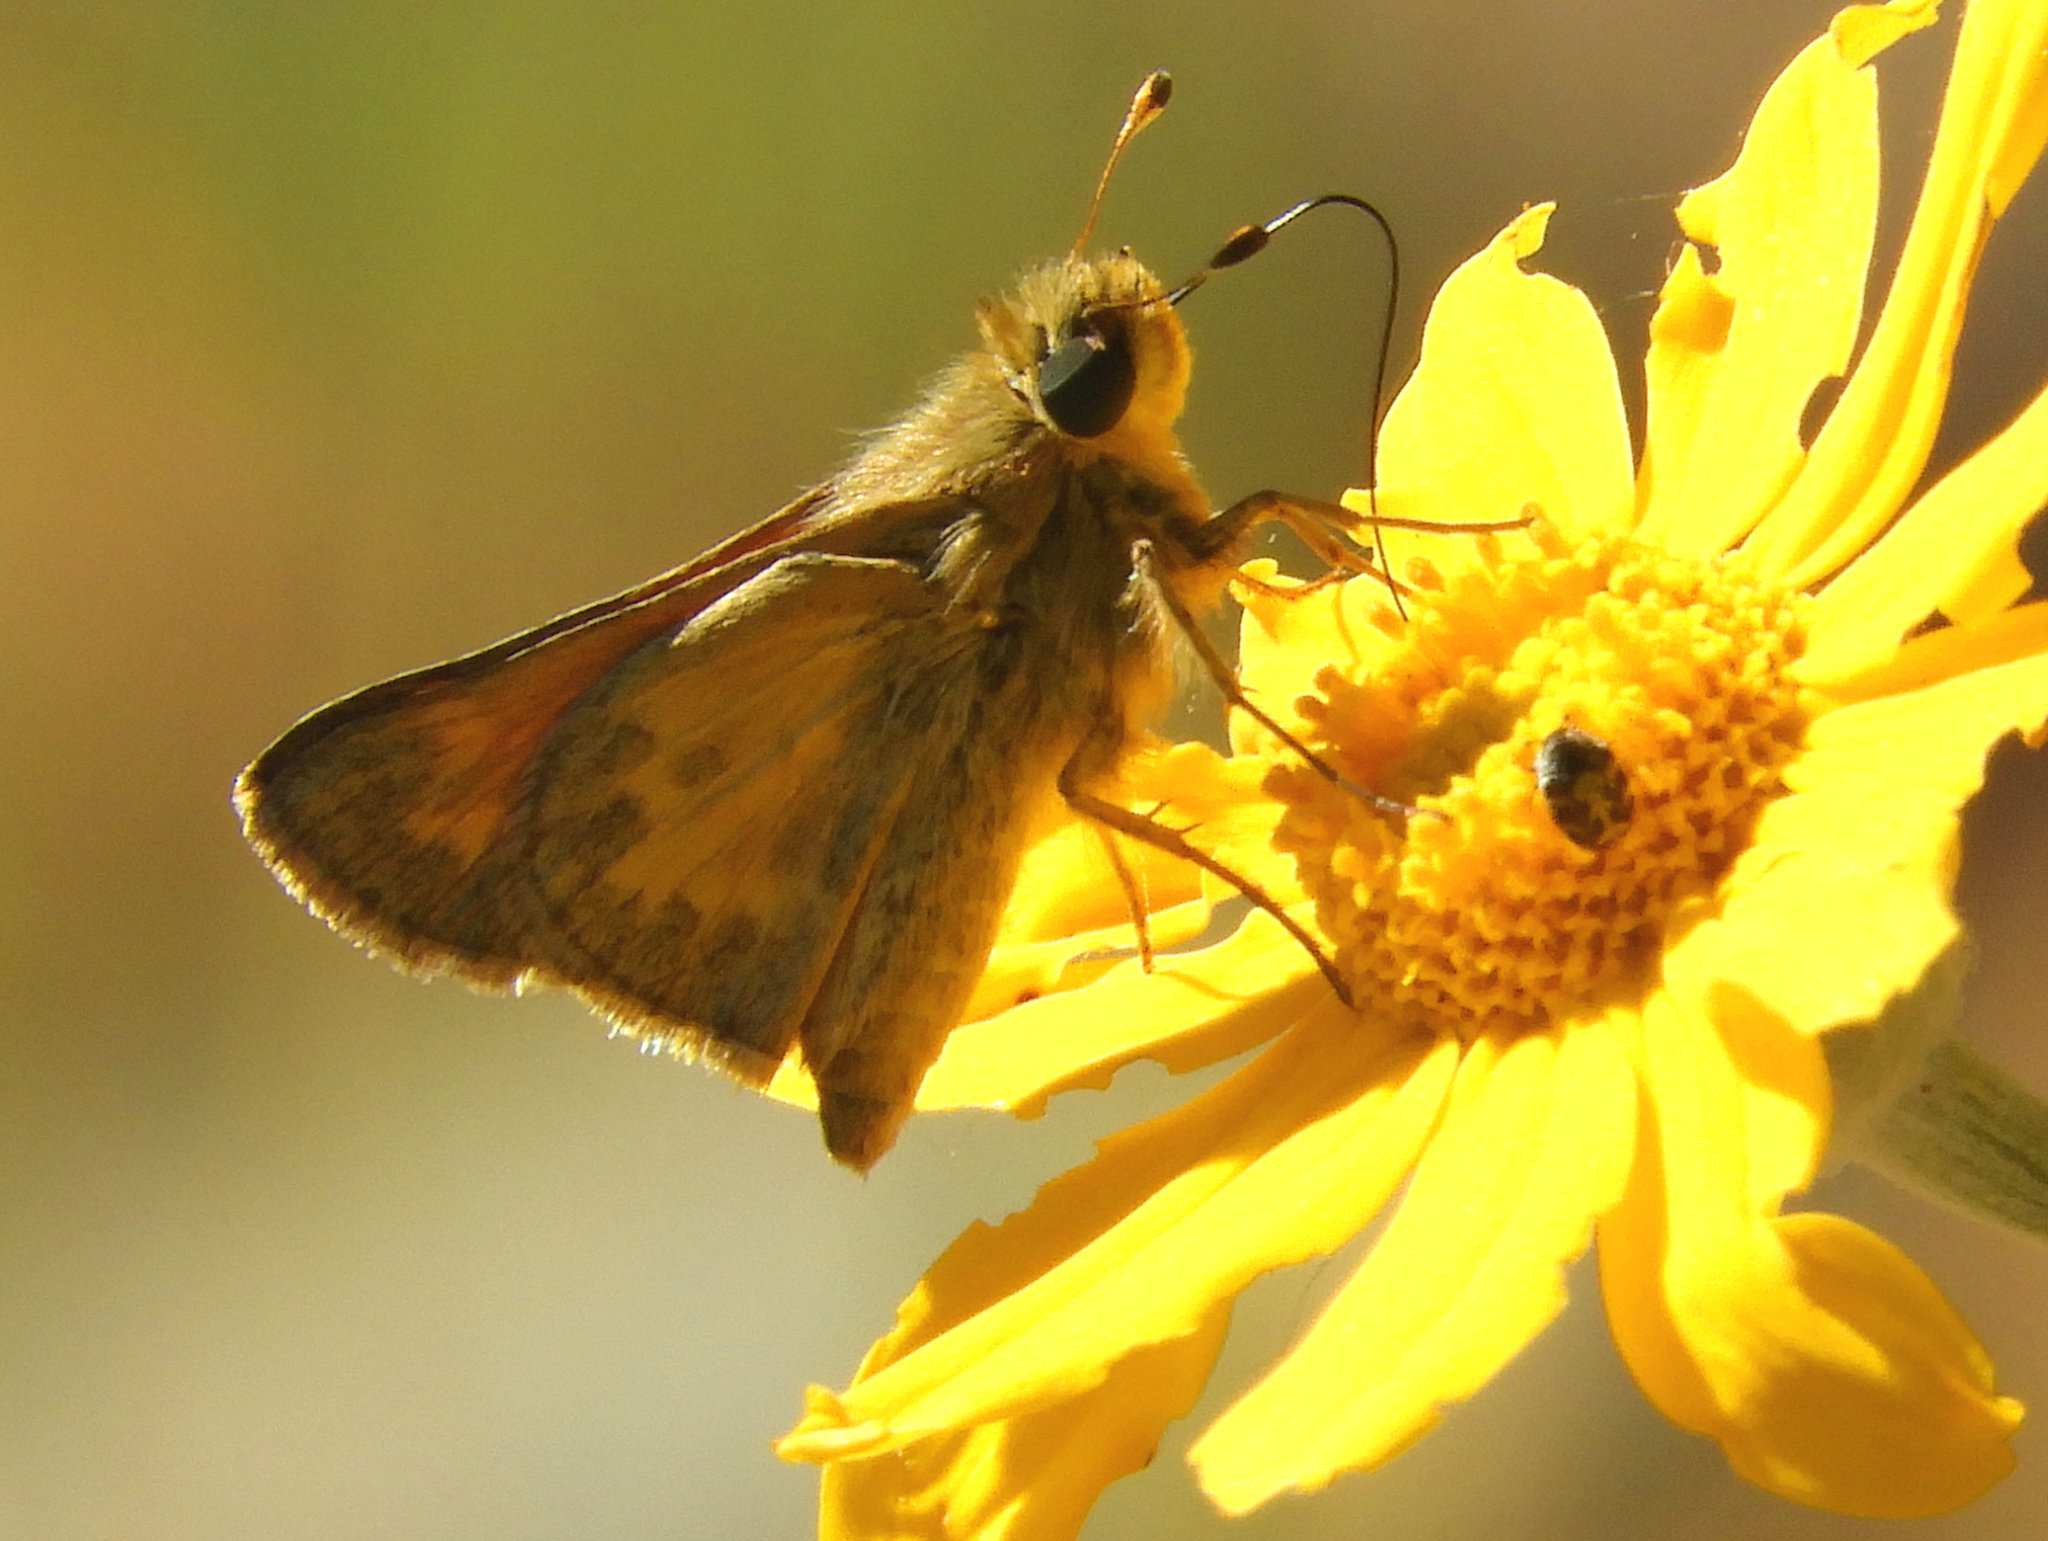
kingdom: Animalia
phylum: Arthropoda
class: Insecta
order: Lepidoptera
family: Hesperiidae
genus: Atalopedes
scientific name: Atalopedes campestris
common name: Sachem
